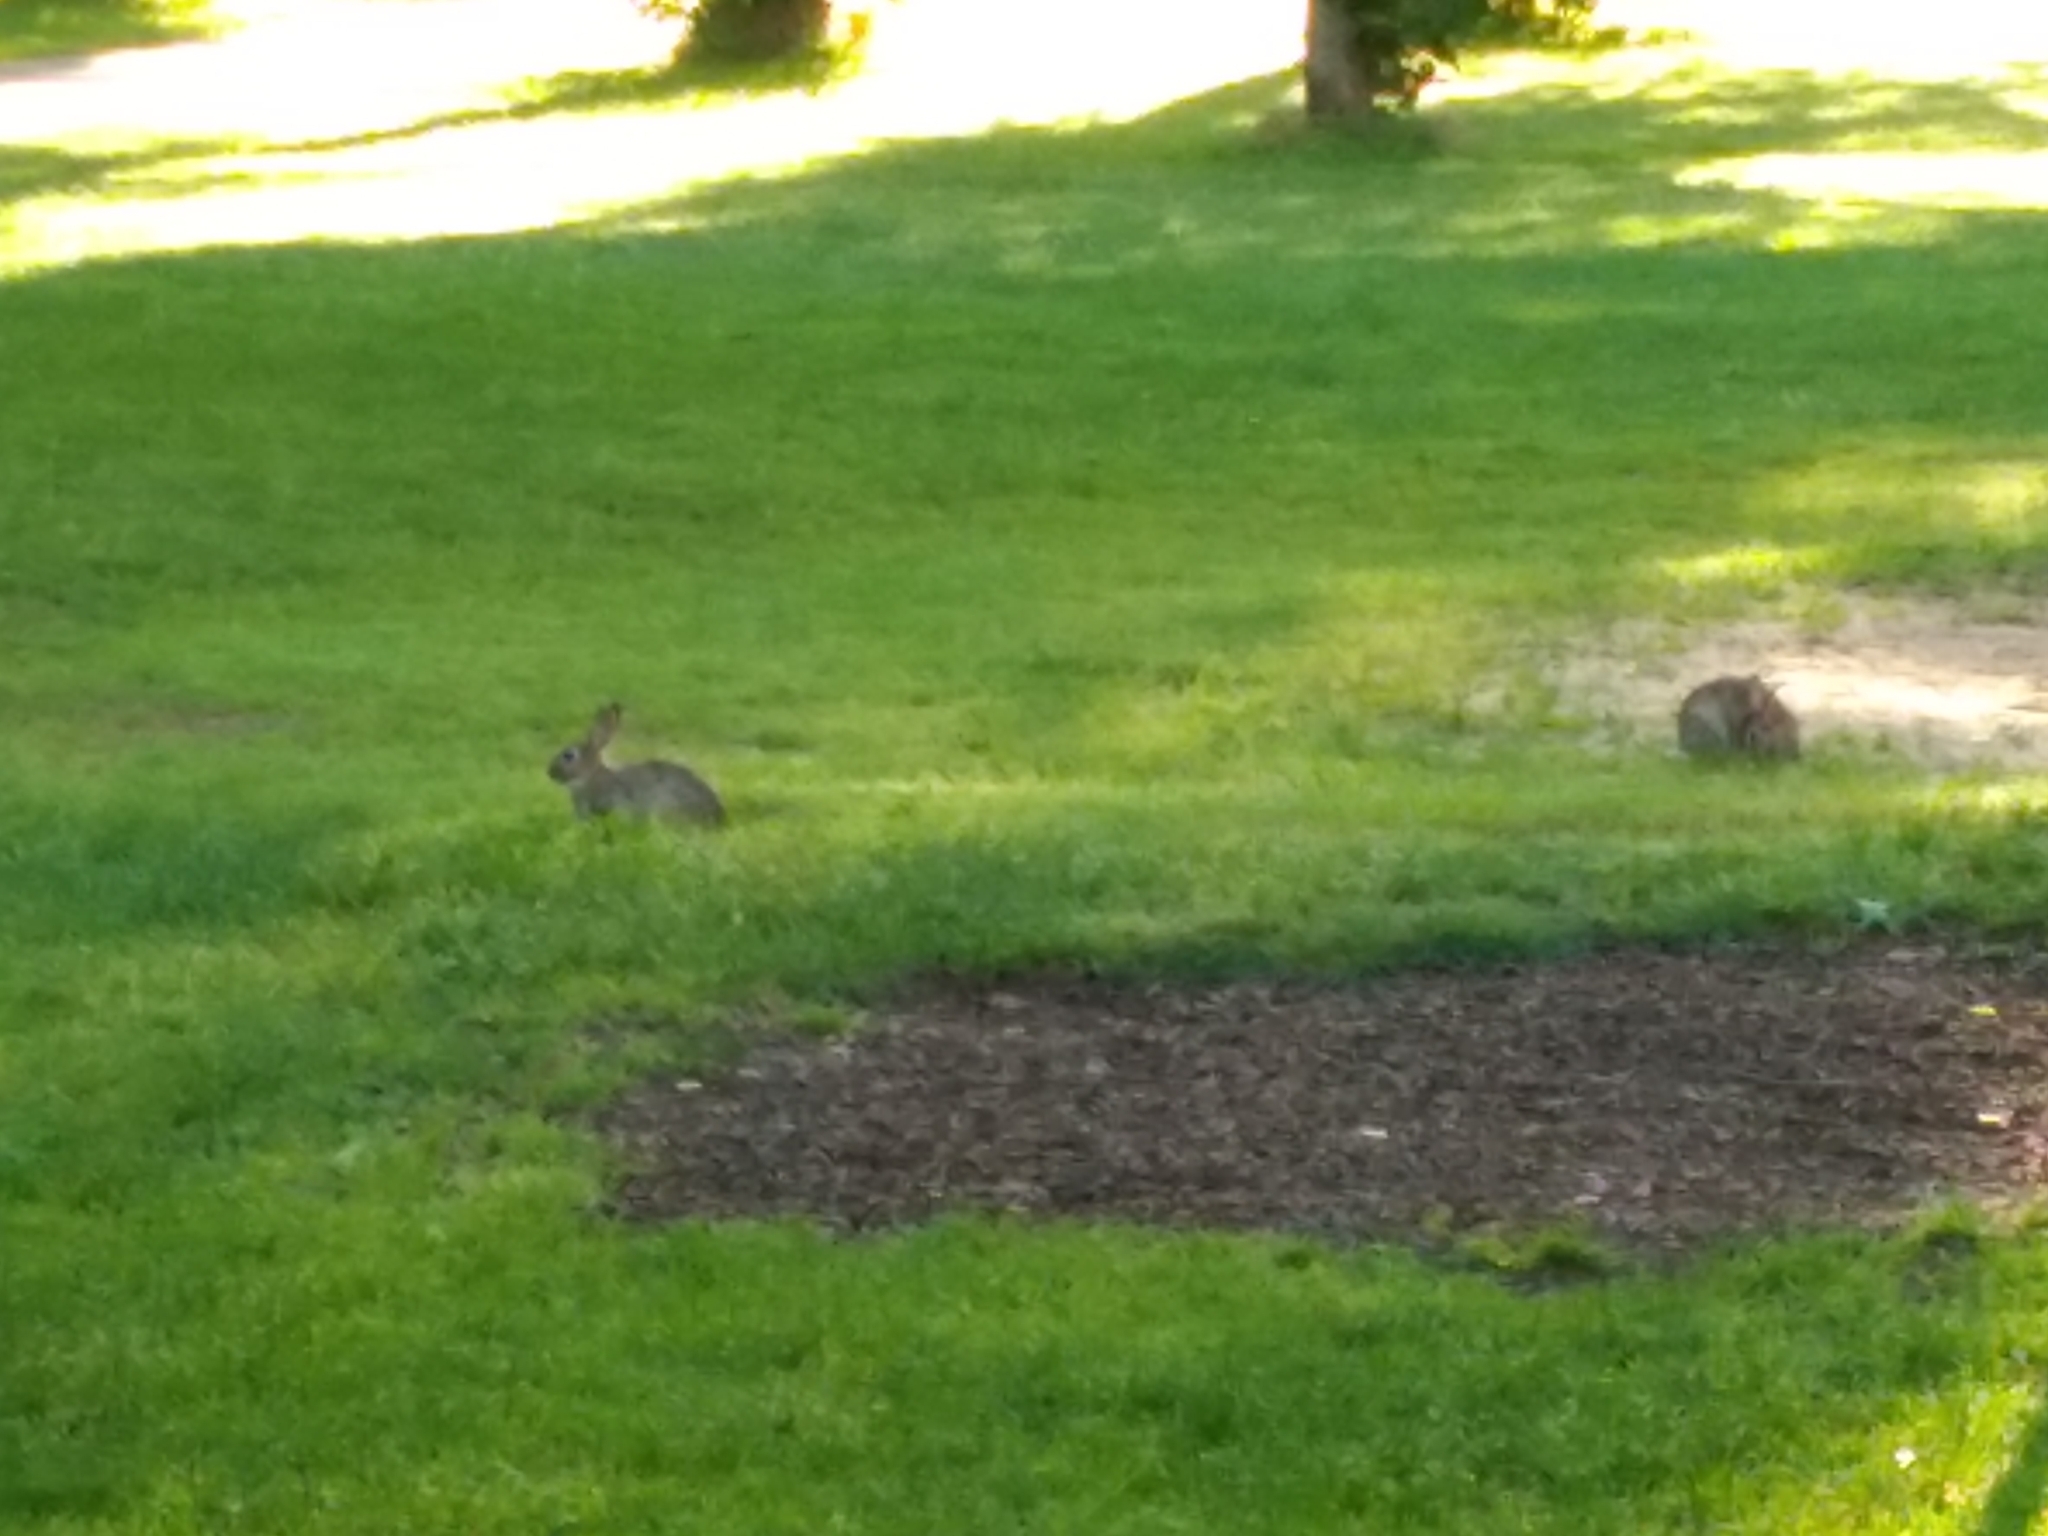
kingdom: Animalia
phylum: Chordata
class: Mammalia
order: Lagomorpha
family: Leporidae
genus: Oryctolagus
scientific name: Oryctolagus cuniculus
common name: European rabbit
